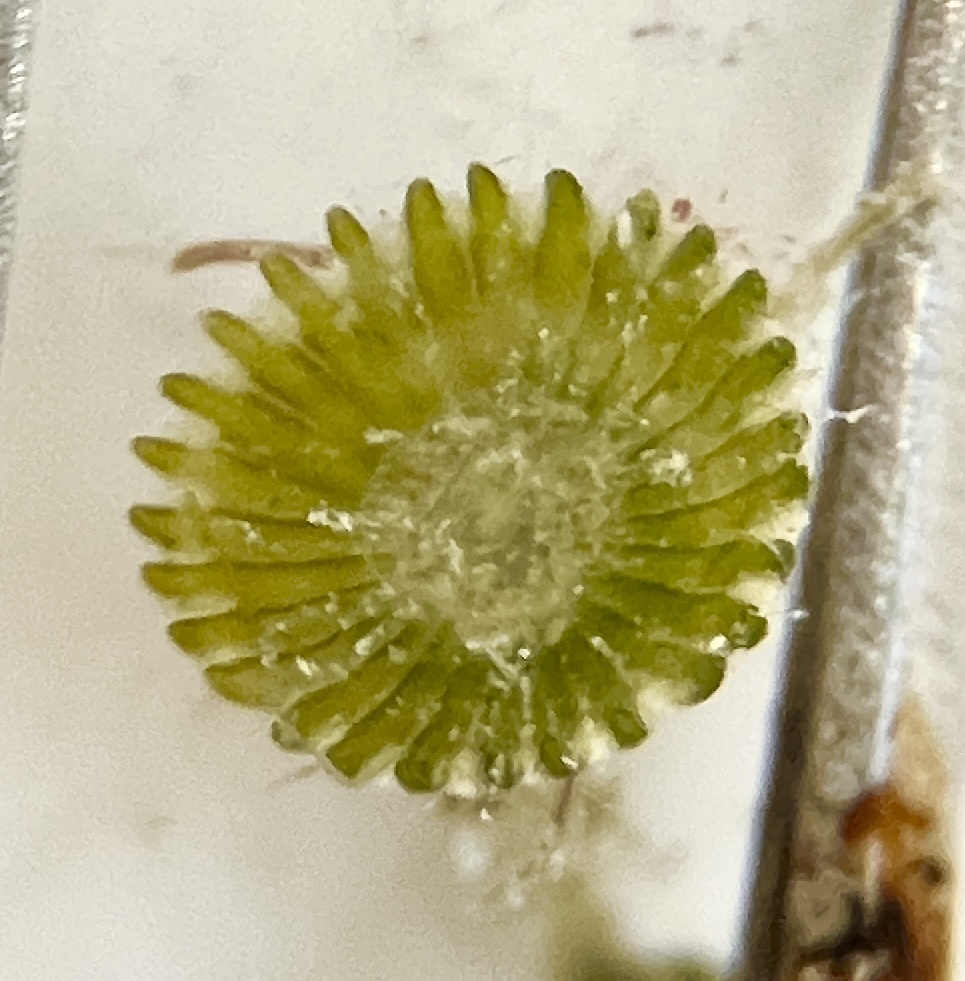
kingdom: Plantae
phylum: Chlorophyta
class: Ulvophyceae
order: Dasycladales
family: Polyphysaceae
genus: Chalmasia
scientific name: Chalmasia antillana
